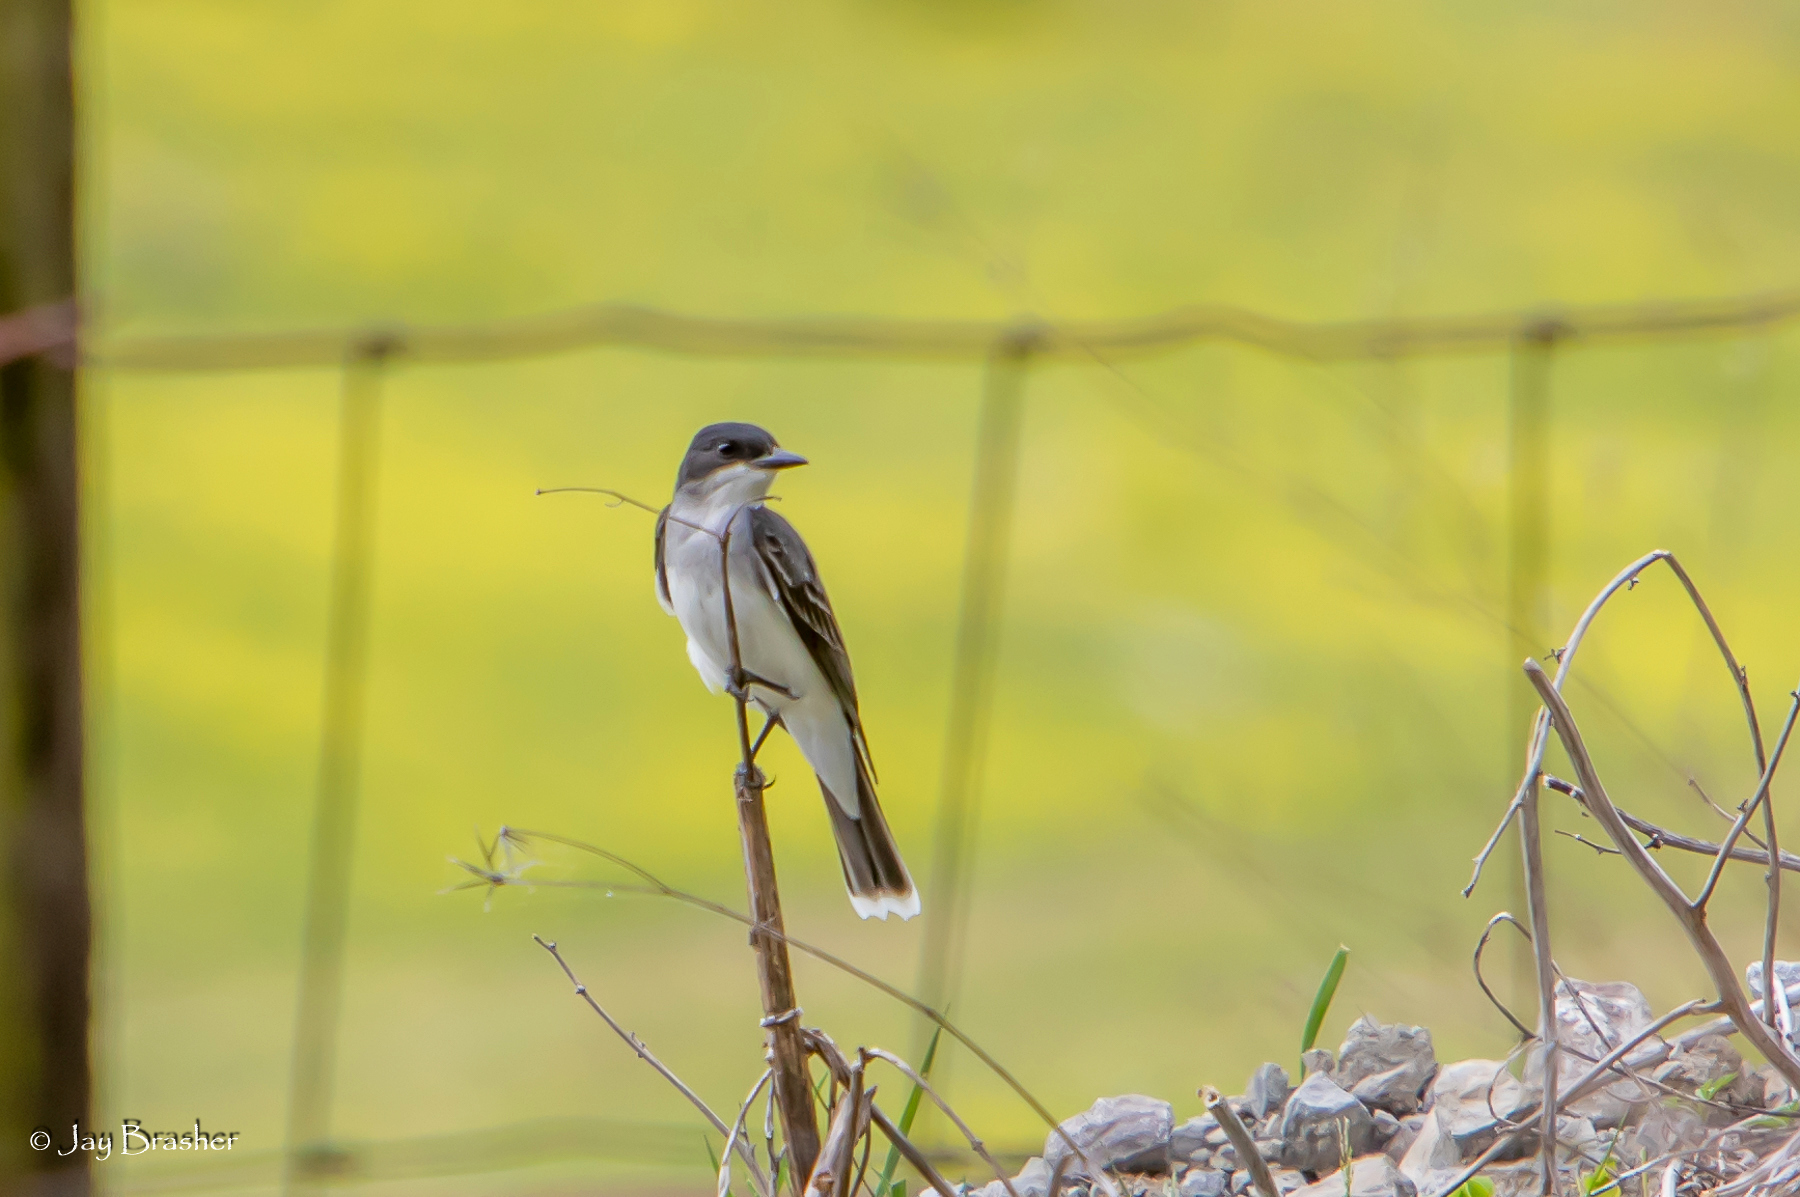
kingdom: Animalia
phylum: Chordata
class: Aves
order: Passeriformes
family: Tyrannidae
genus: Tyrannus
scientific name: Tyrannus tyrannus
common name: Eastern kingbird
